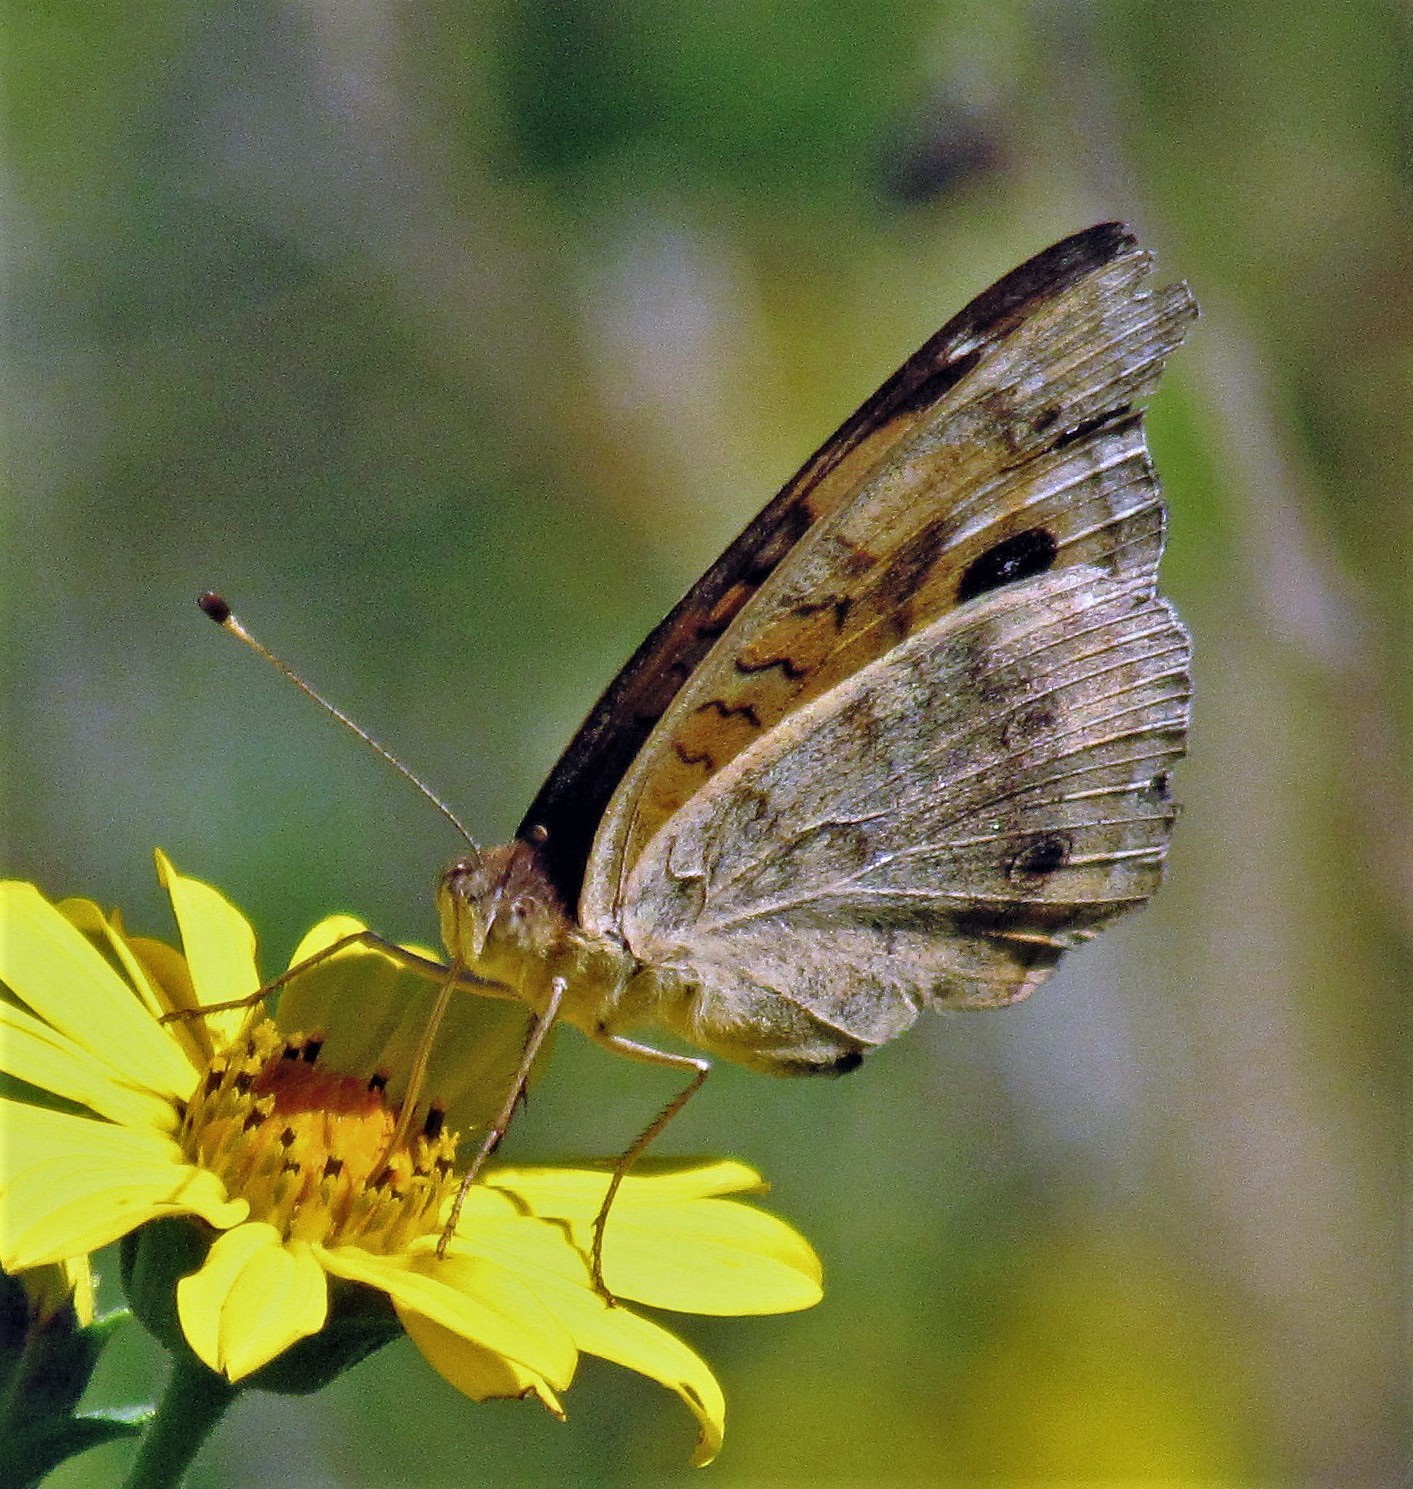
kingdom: Animalia
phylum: Arthropoda
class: Insecta
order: Lepidoptera
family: Nymphalidae
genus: Junonia
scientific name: Junonia lavinia
